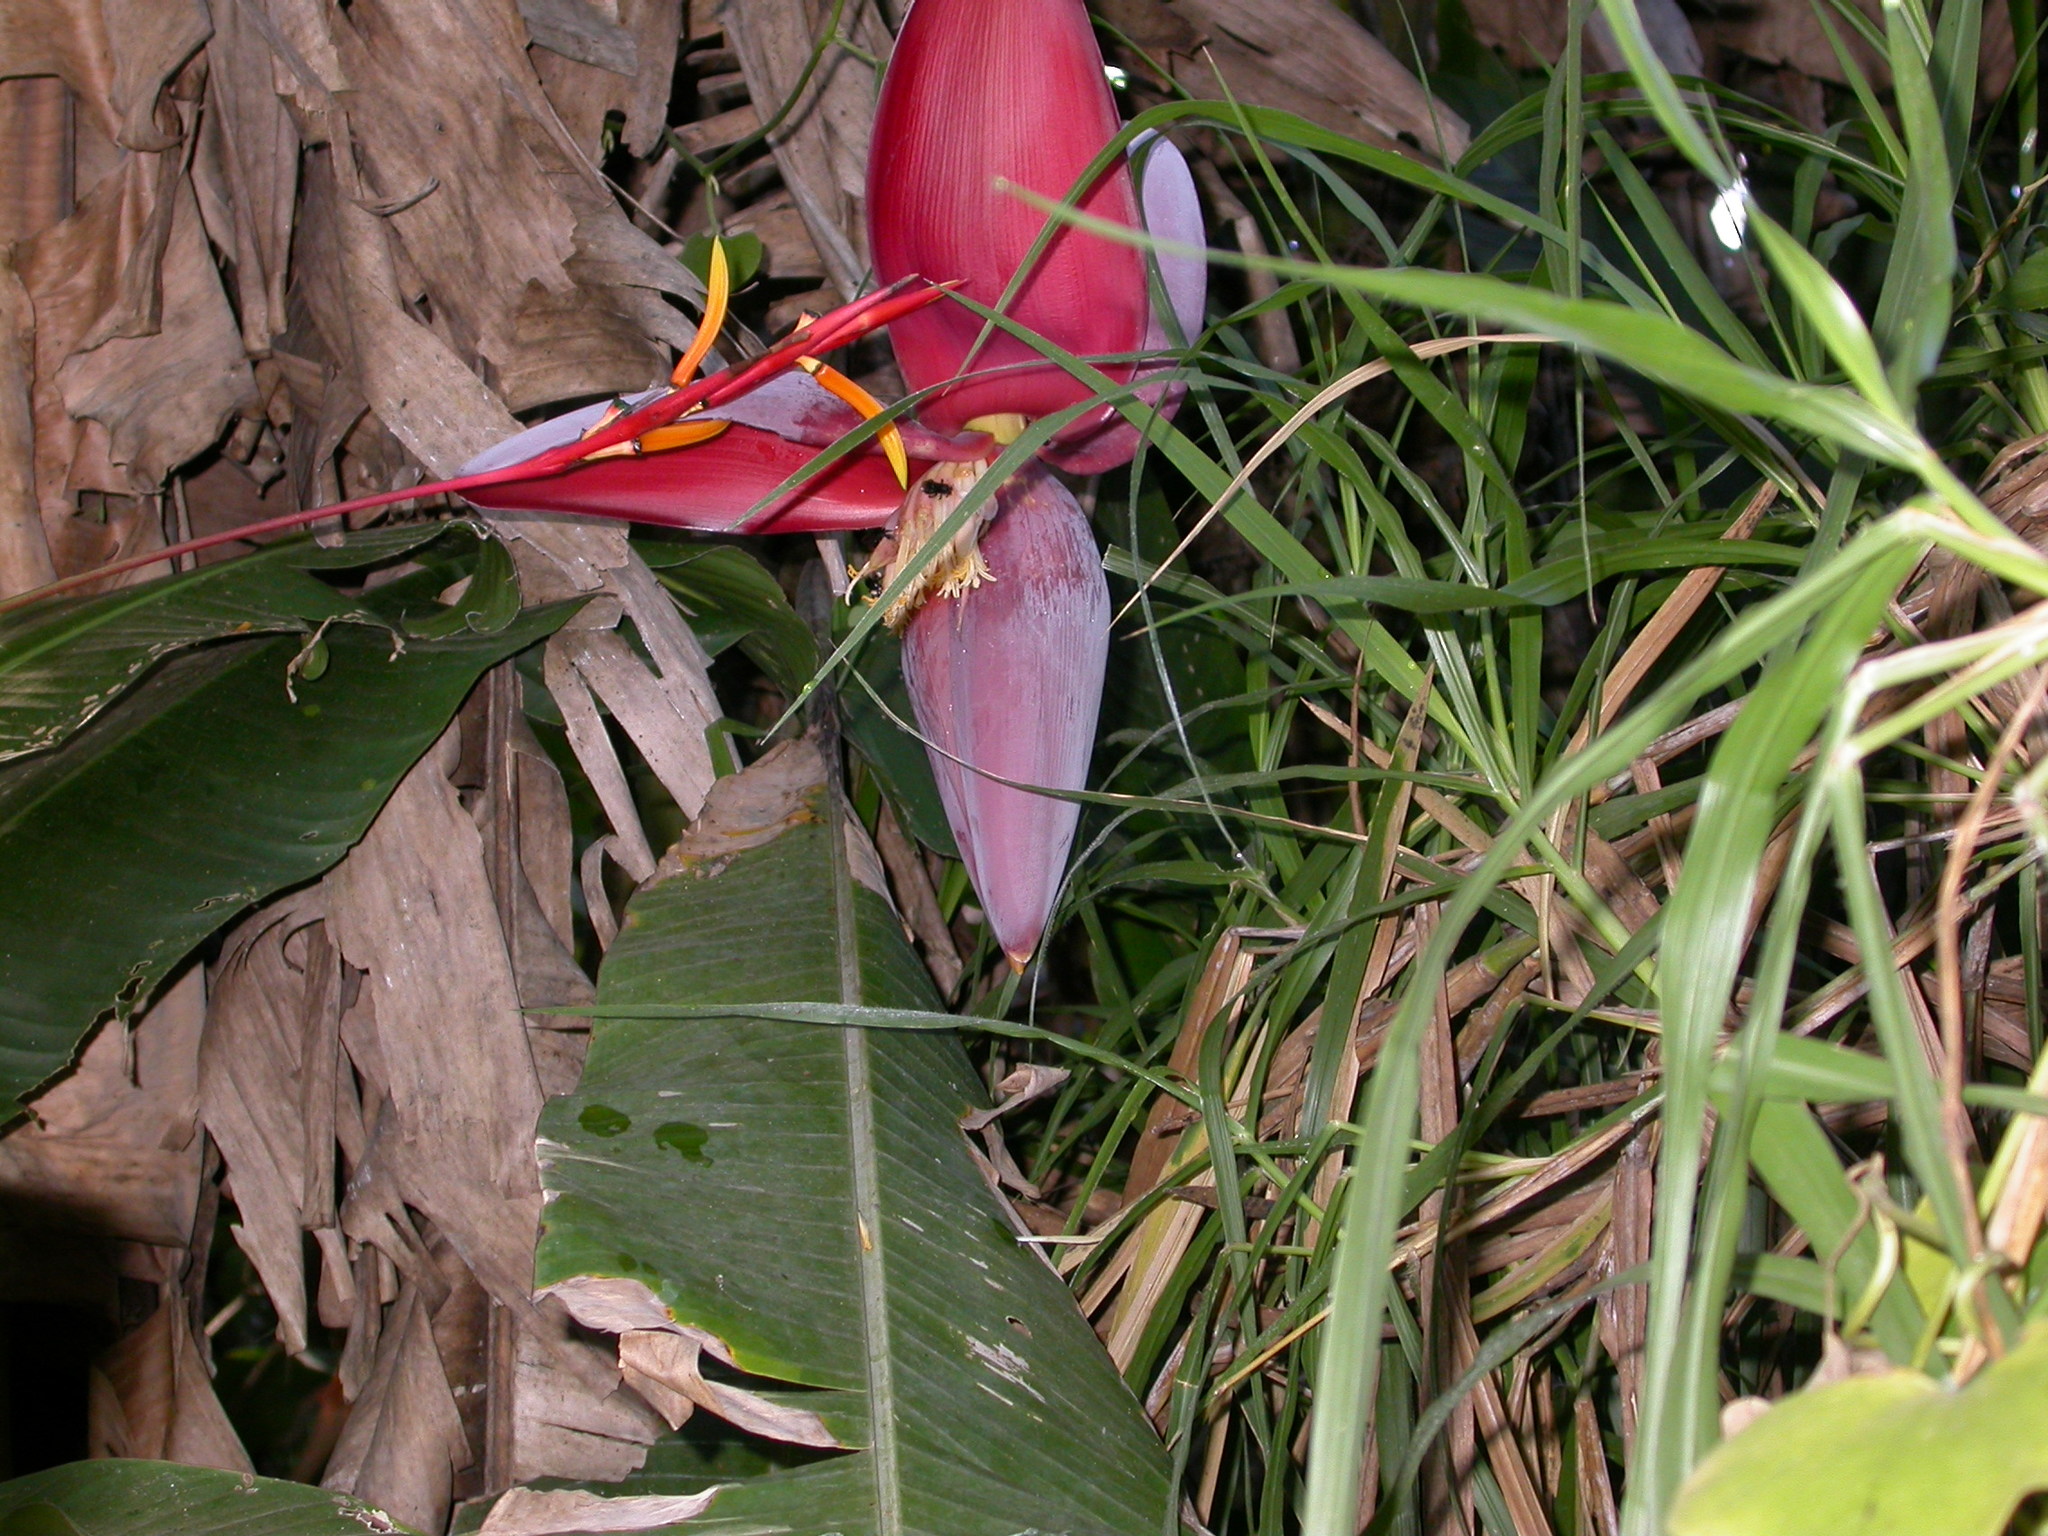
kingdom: Plantae
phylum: Tracheophyta
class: Liliopsida
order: Zingiberales
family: Musaceae
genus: Musa
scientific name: Musa paradisiaca
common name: French plantain
